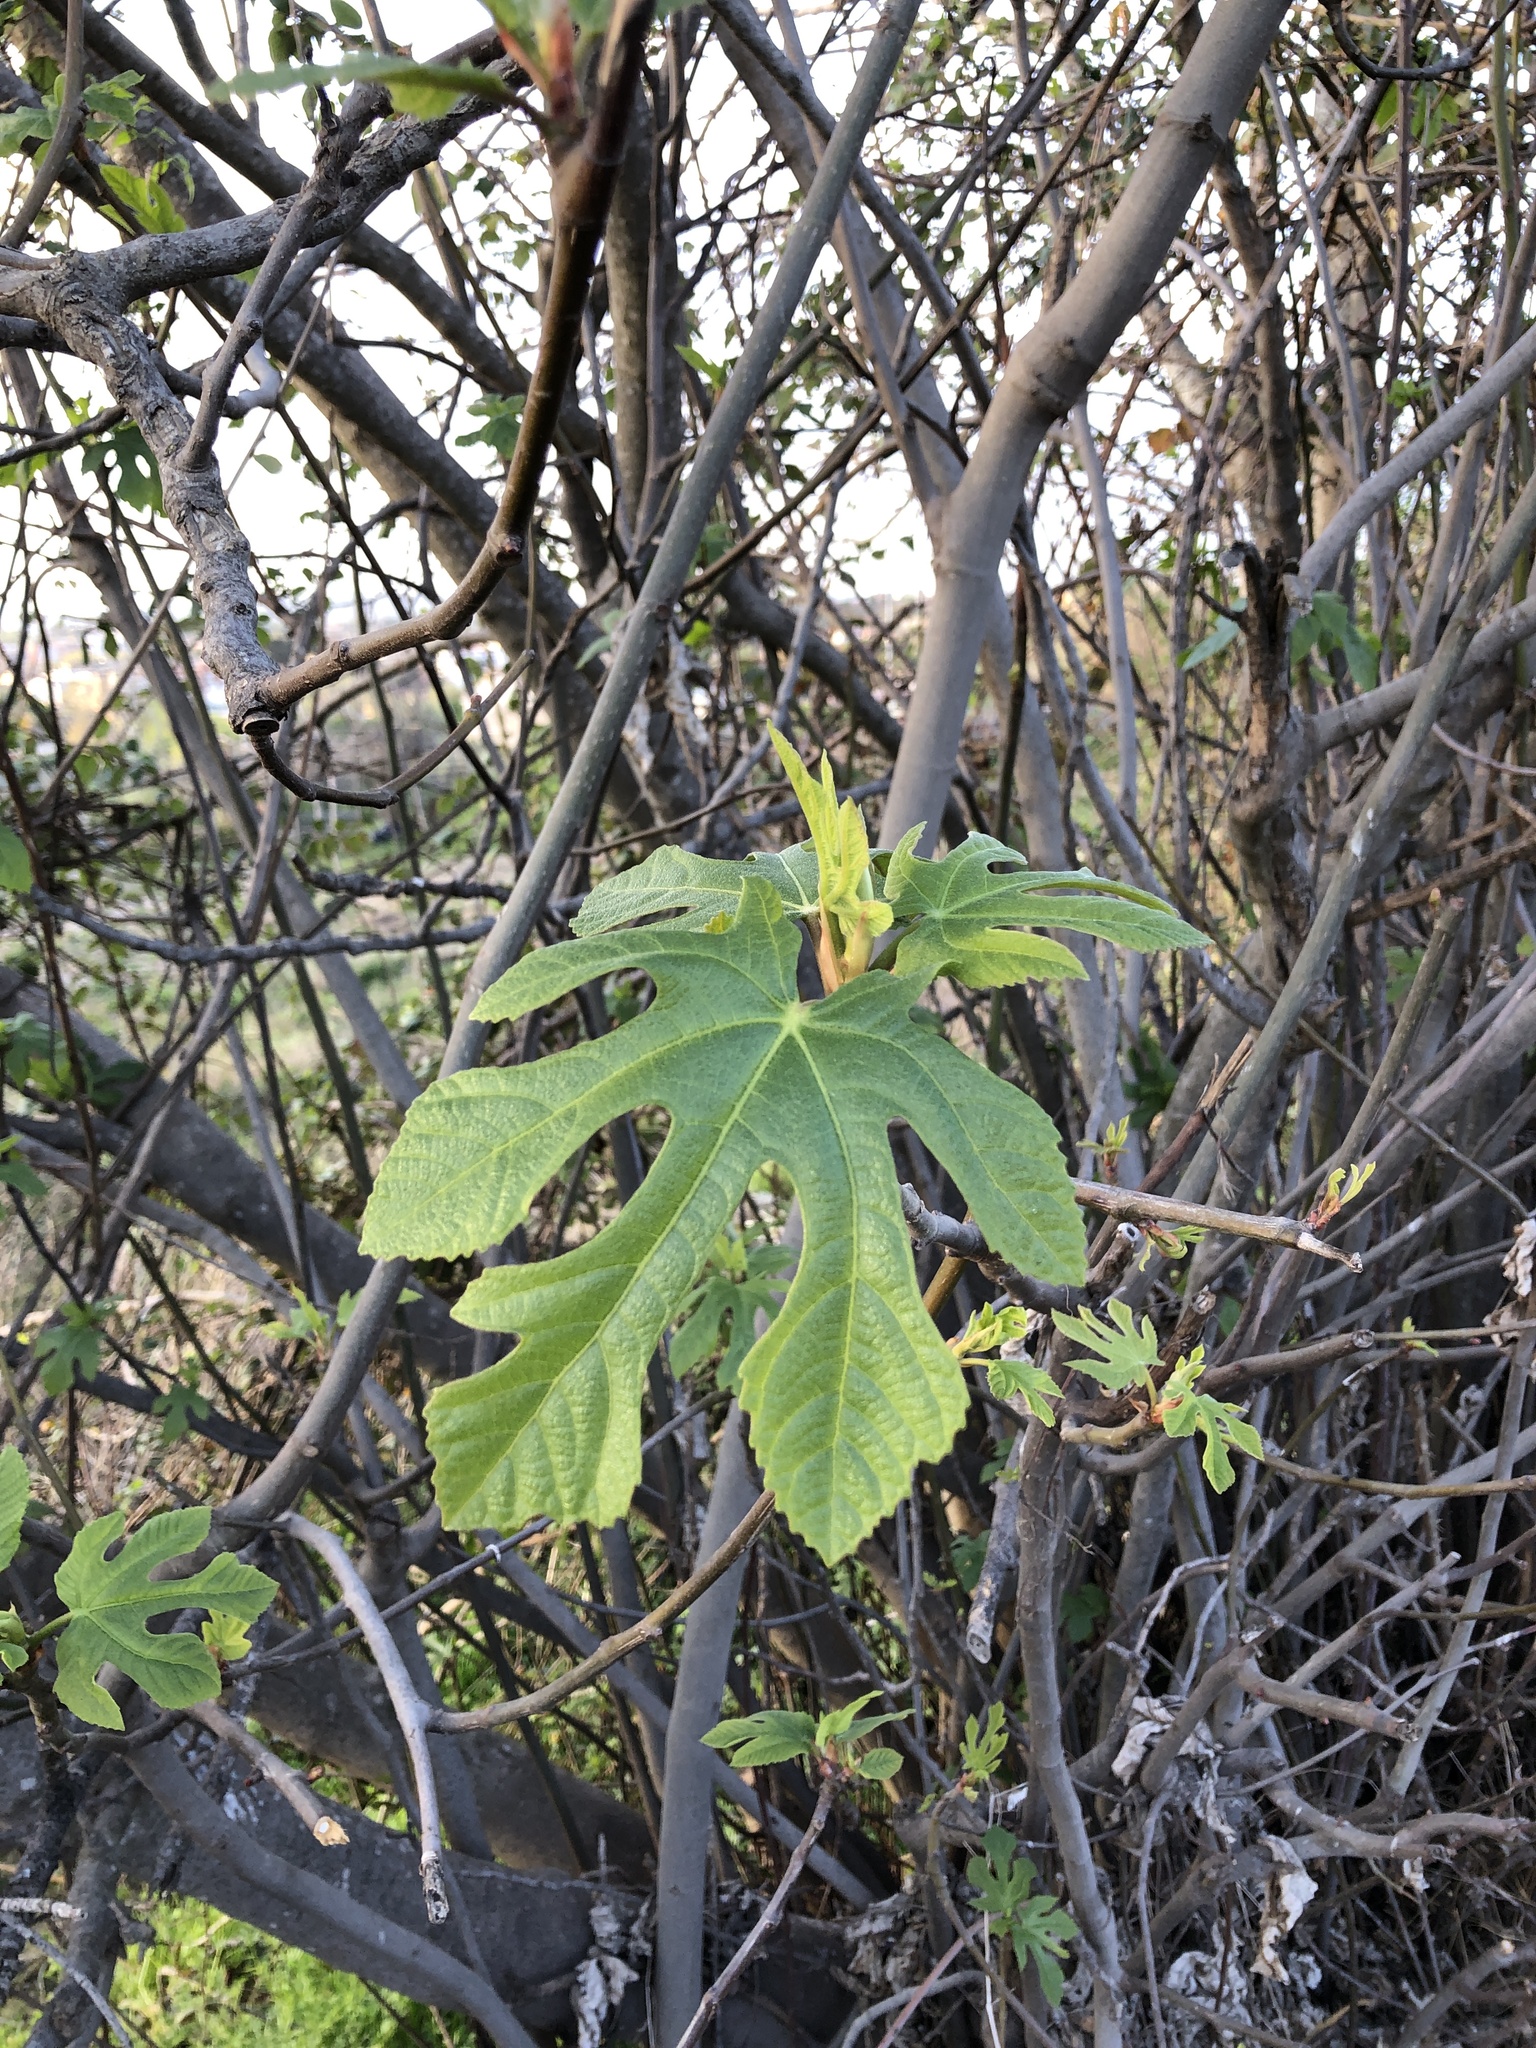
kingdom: Plantae
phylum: Tracheophyta
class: Magnoliopsida
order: Rosales
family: Moraceae
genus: Ficus
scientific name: Ficus carica
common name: Fig
